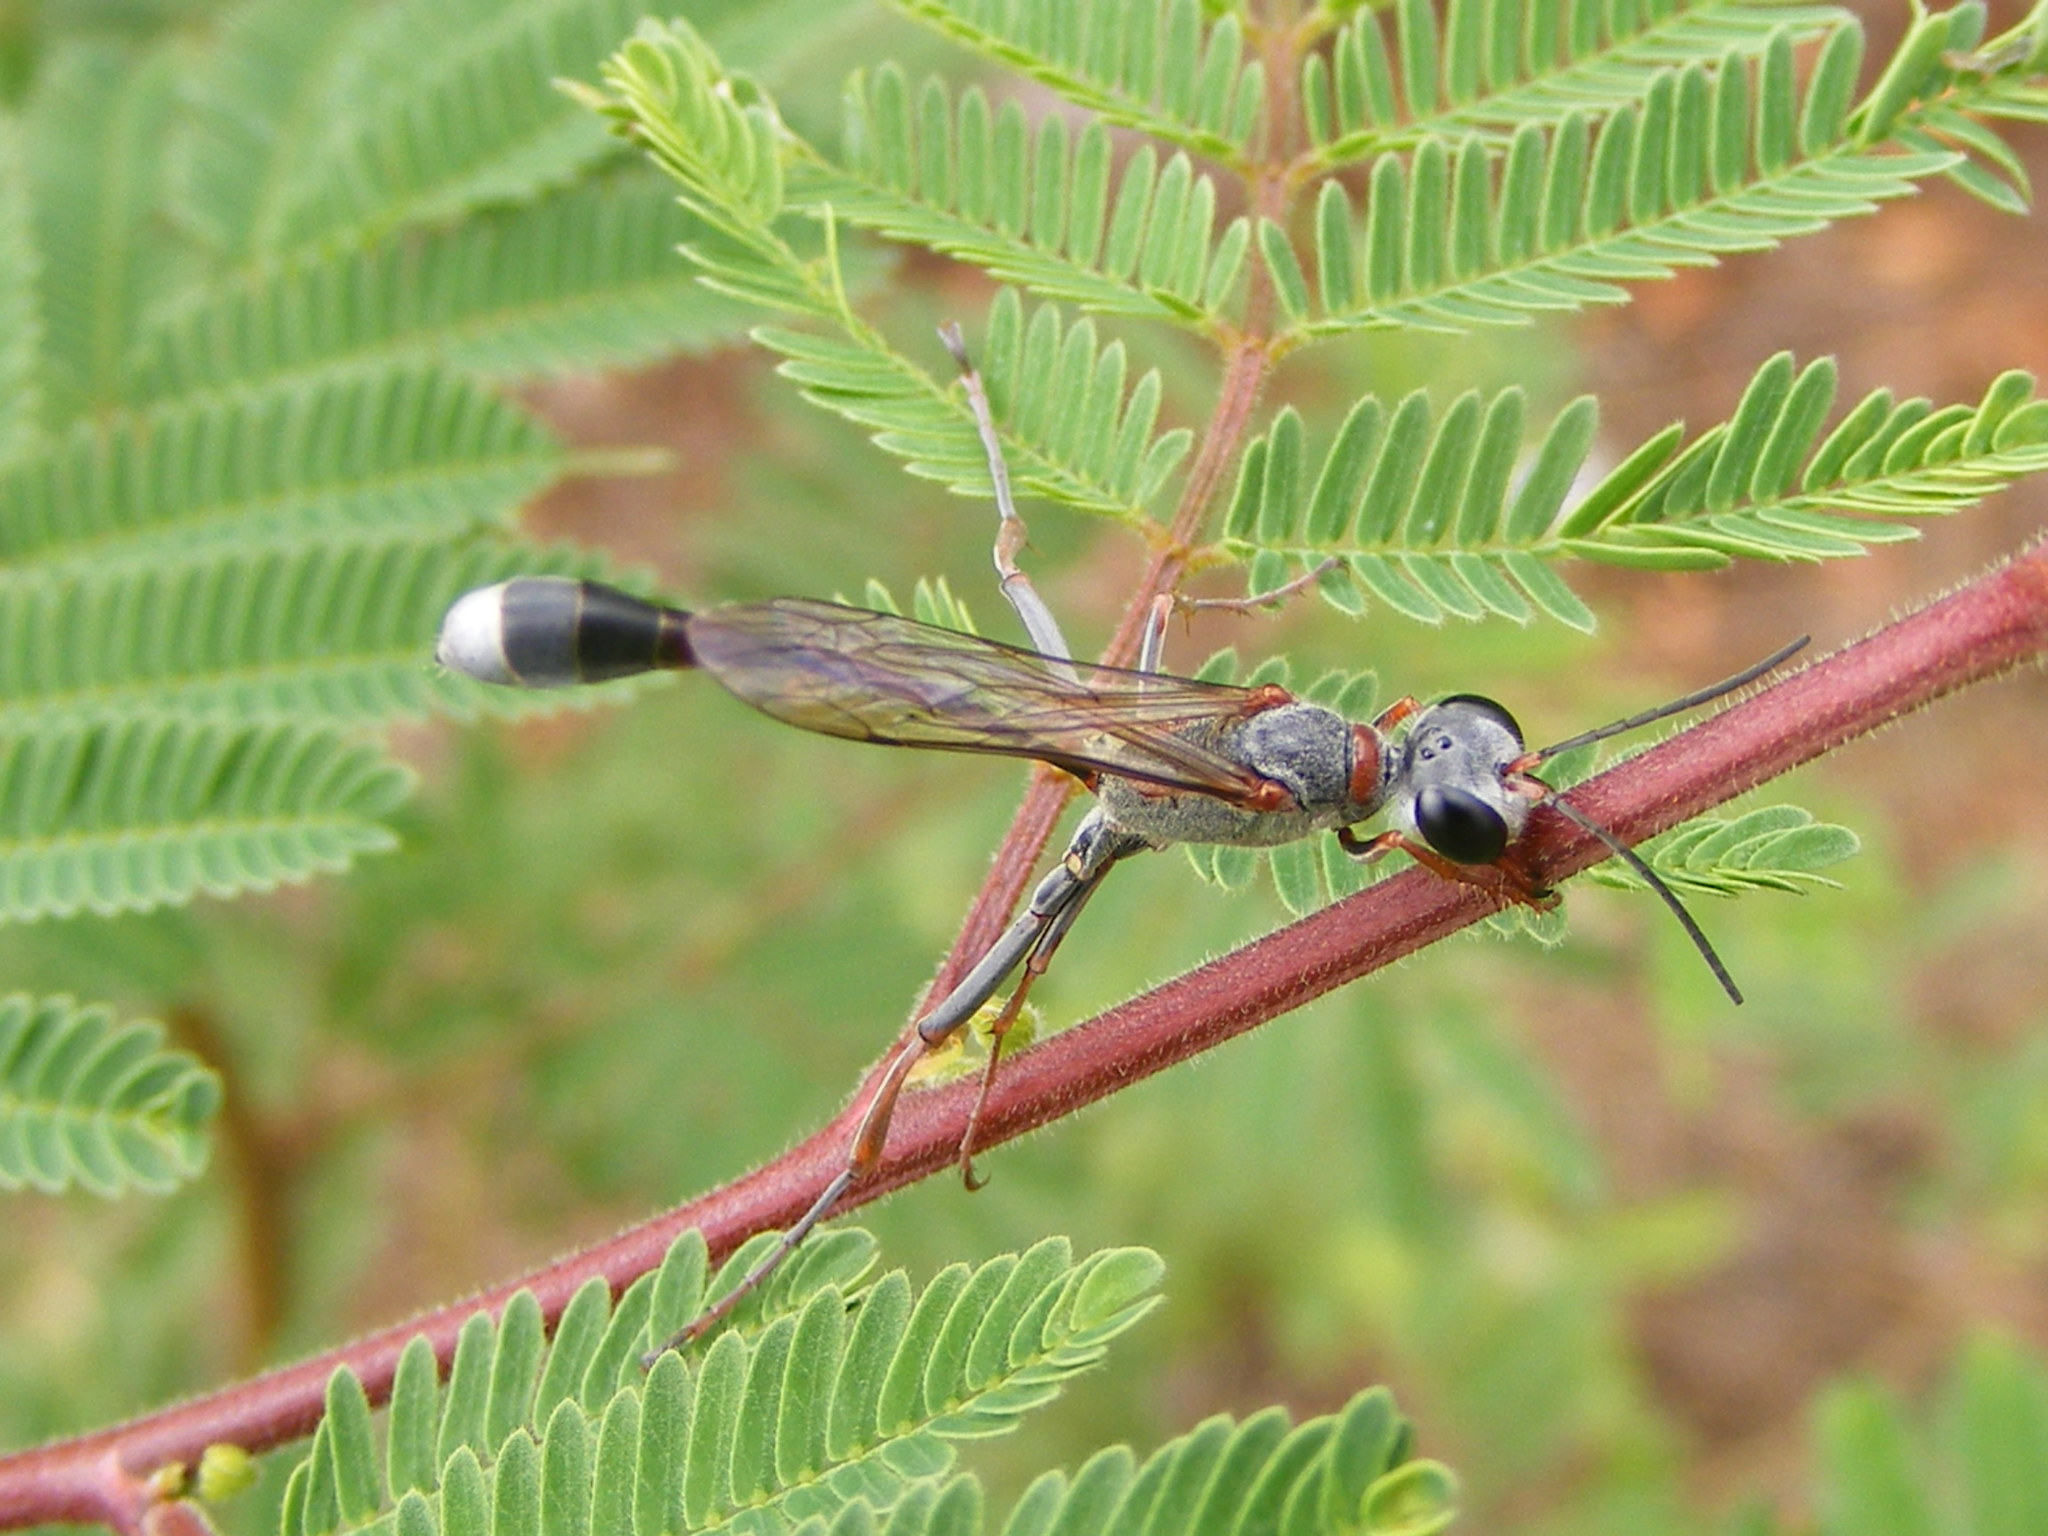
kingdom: Animalia
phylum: Arthropoda
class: Insecta
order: Hymenoptera
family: Sphecidae
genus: Ammophila
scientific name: Ammophila
